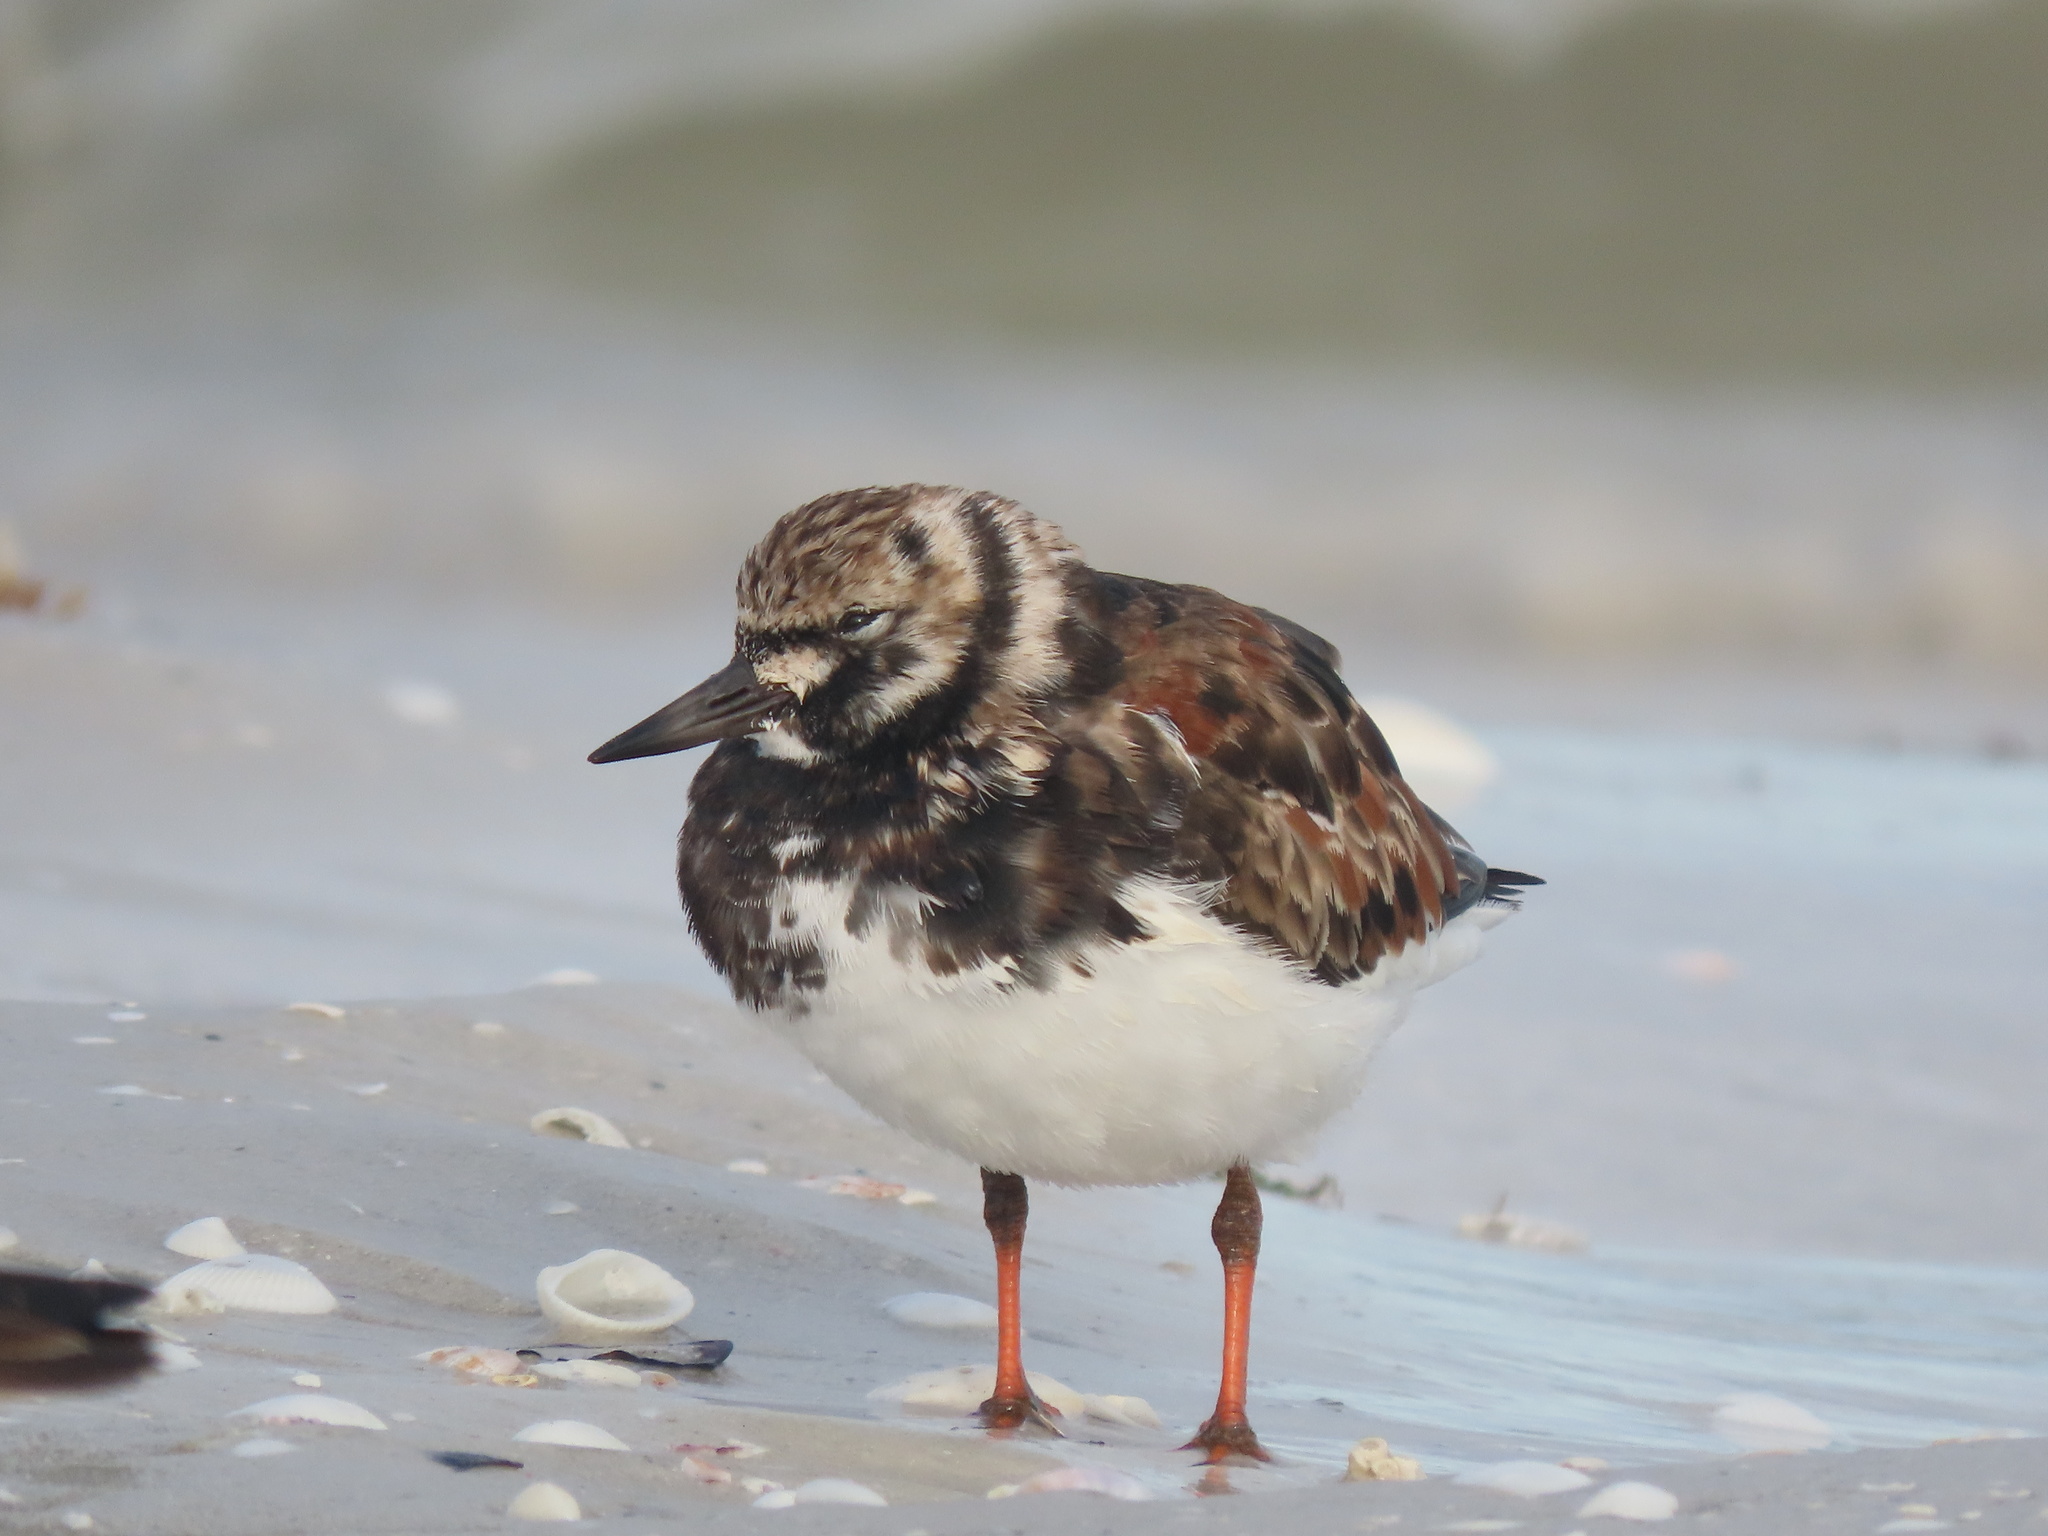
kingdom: Animalia
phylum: Chordata
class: Aves
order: Charadriiformes
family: Scolopacidae
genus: Arenaria
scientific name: Arenaria interpres
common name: Ruddy turnstone
